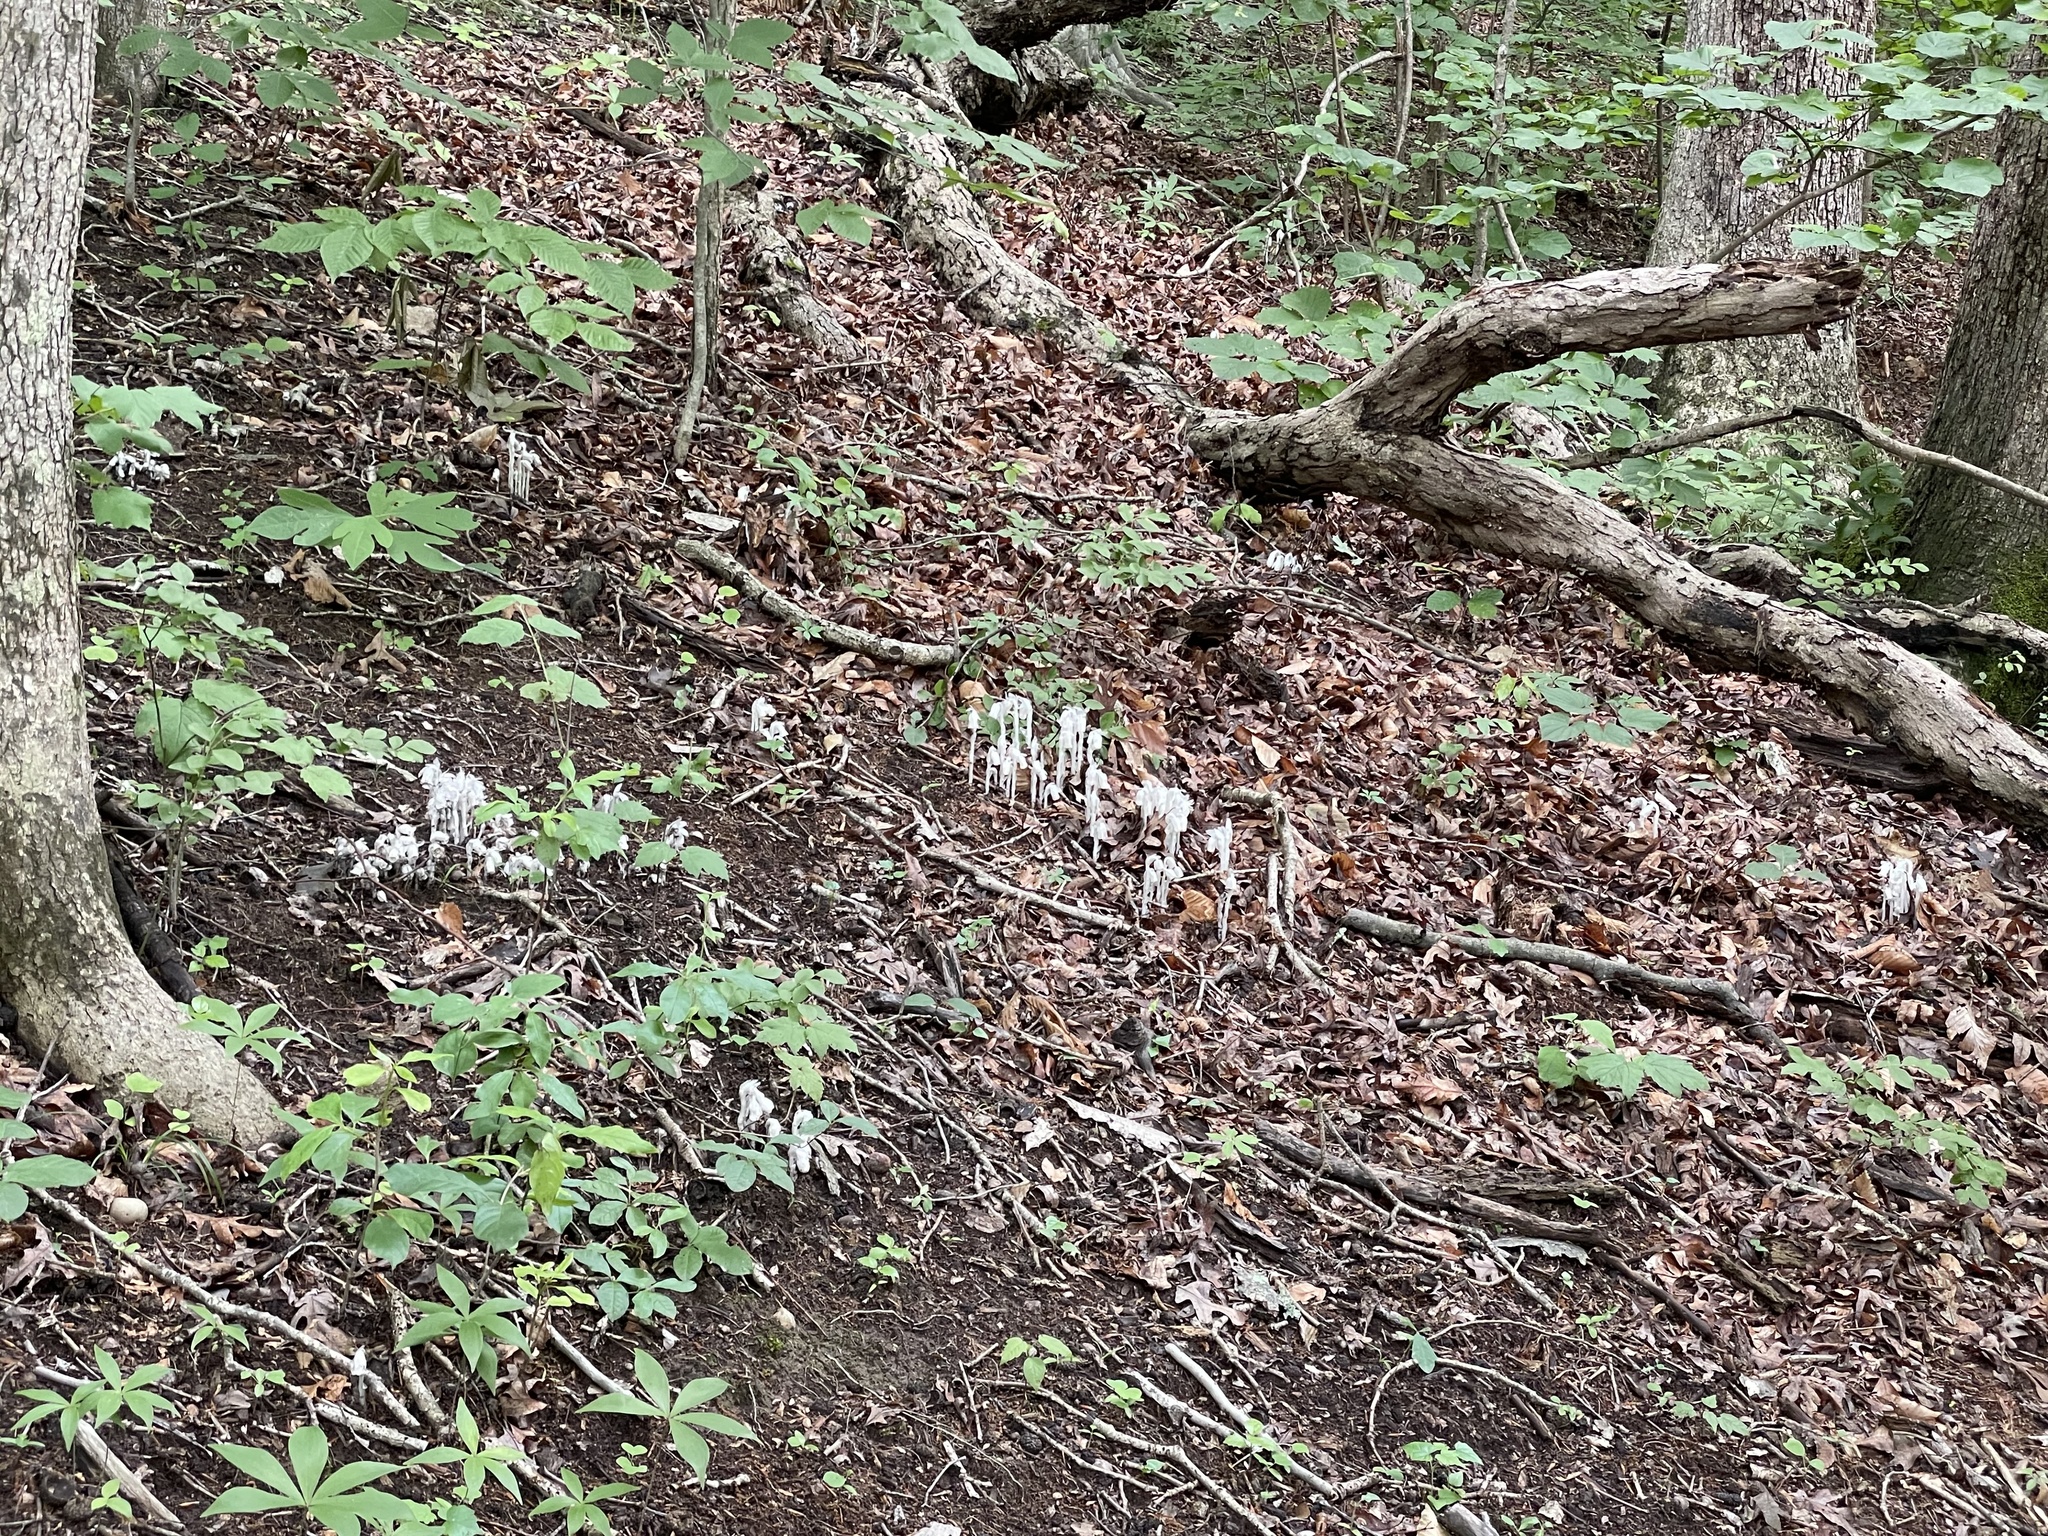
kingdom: Plantae
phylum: Tracheophyta
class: Magnoliopsida
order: Ericales
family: Ericaceae
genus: Monotropa
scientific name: Monotropa uniflora
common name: Convulsion root
